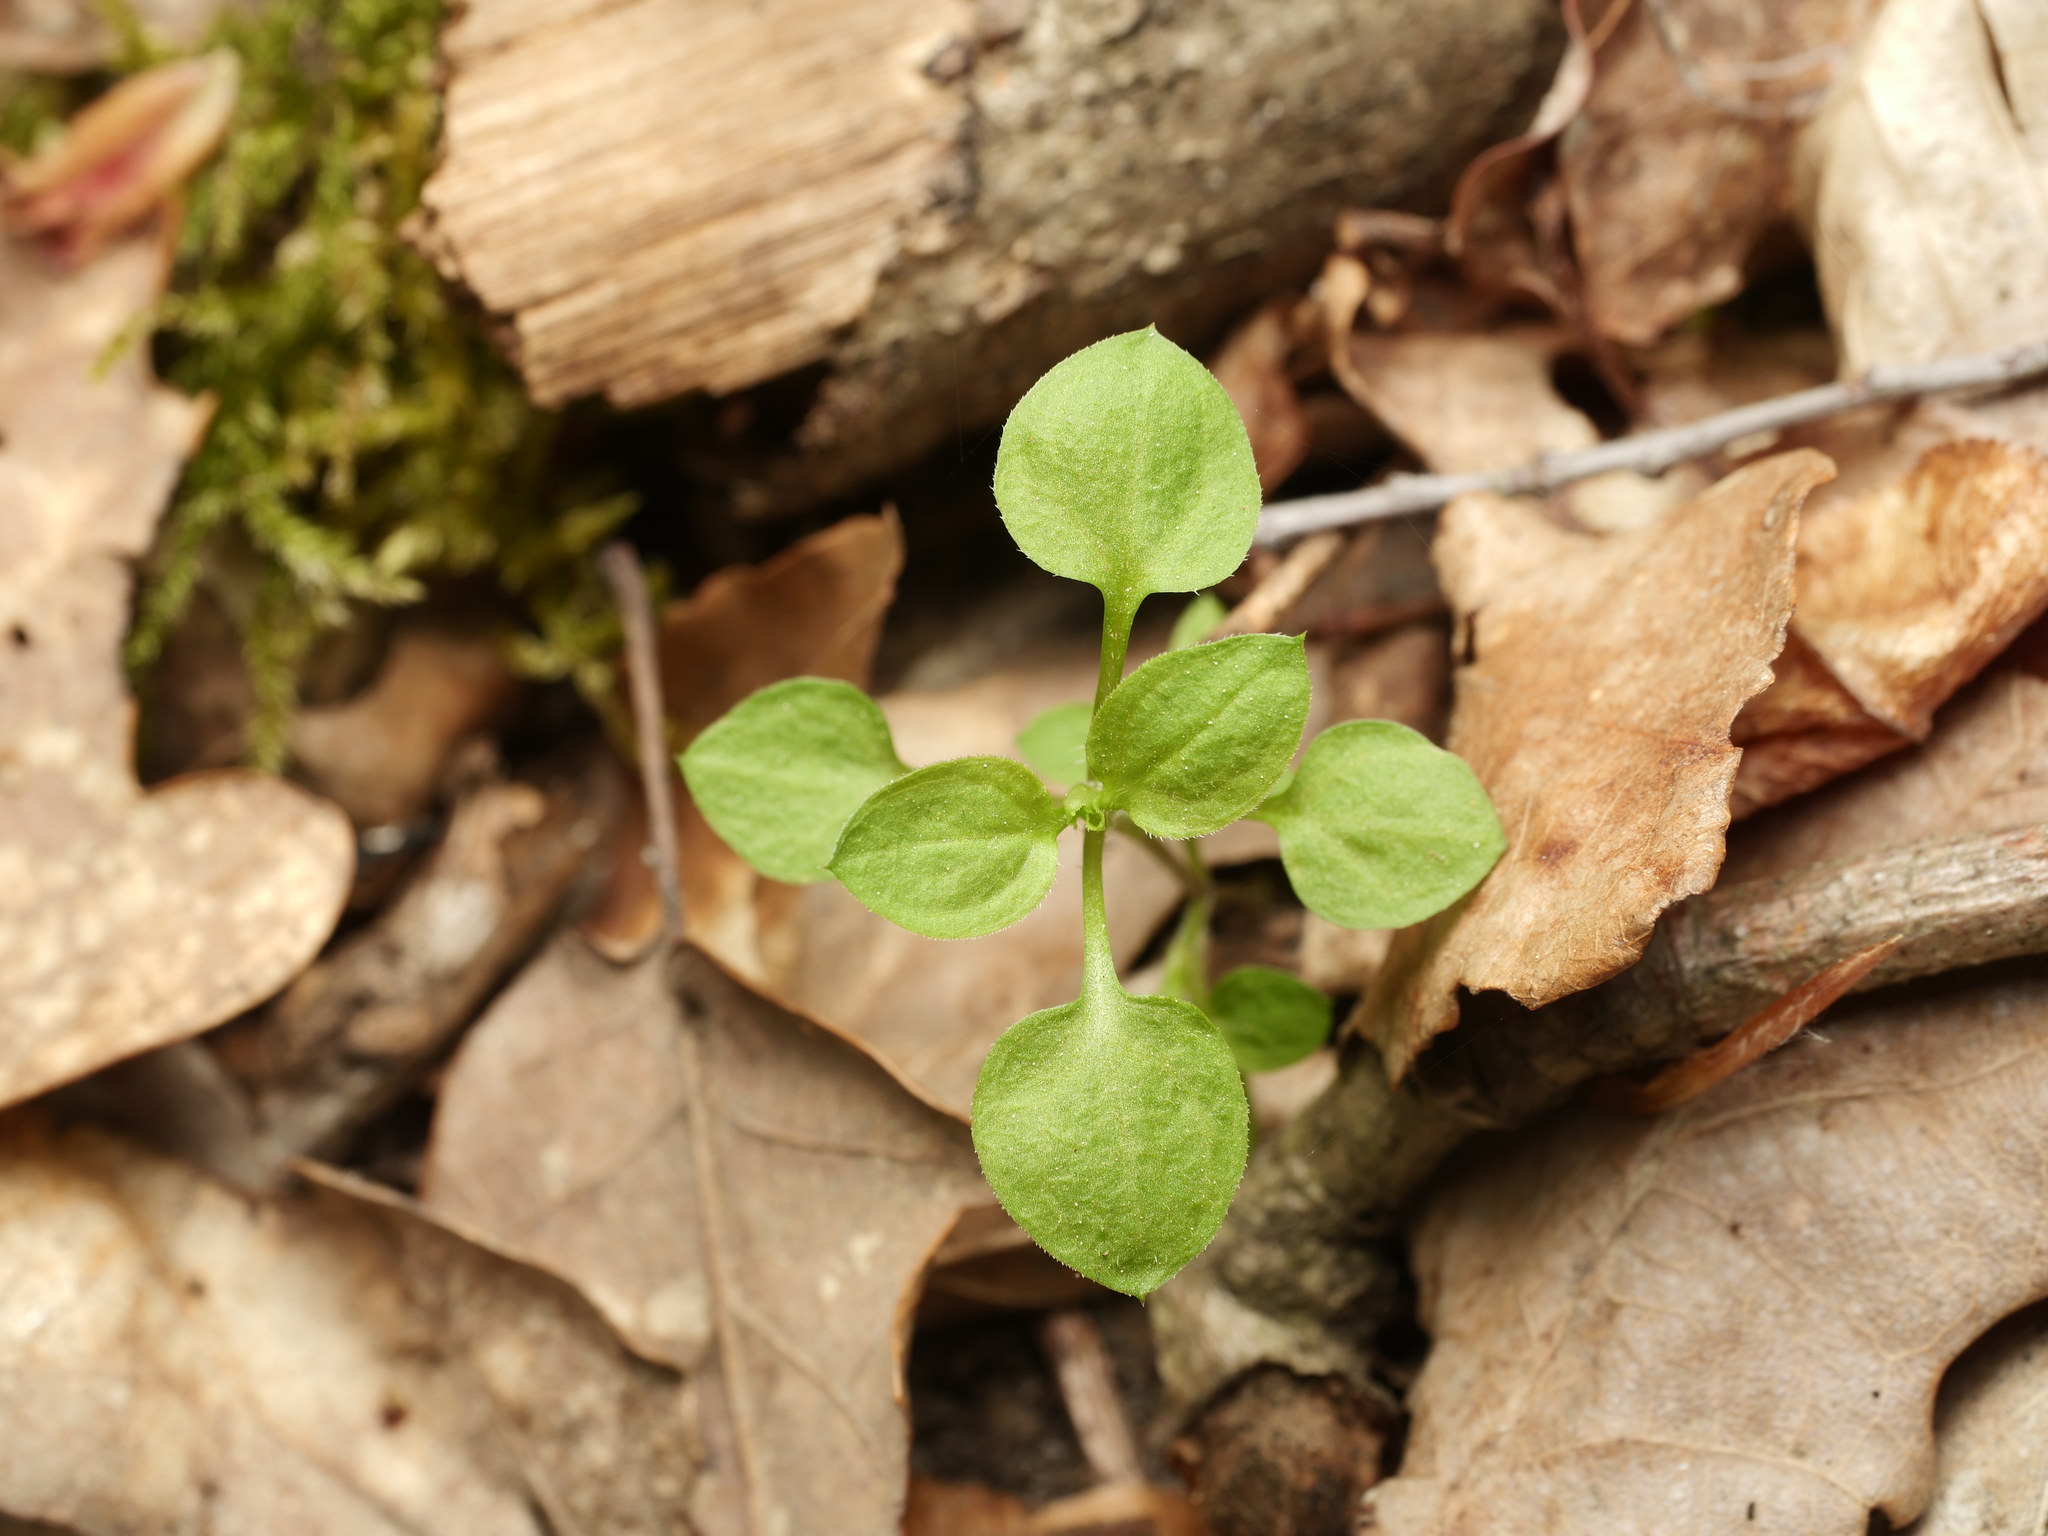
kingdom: Plantae
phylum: Tracheophyta
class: Magnoliopsida
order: Caryophyllales
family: Caryophyllaceae
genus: Moehringia
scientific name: Moehringia trinervia
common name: Three-nerved sandwort
